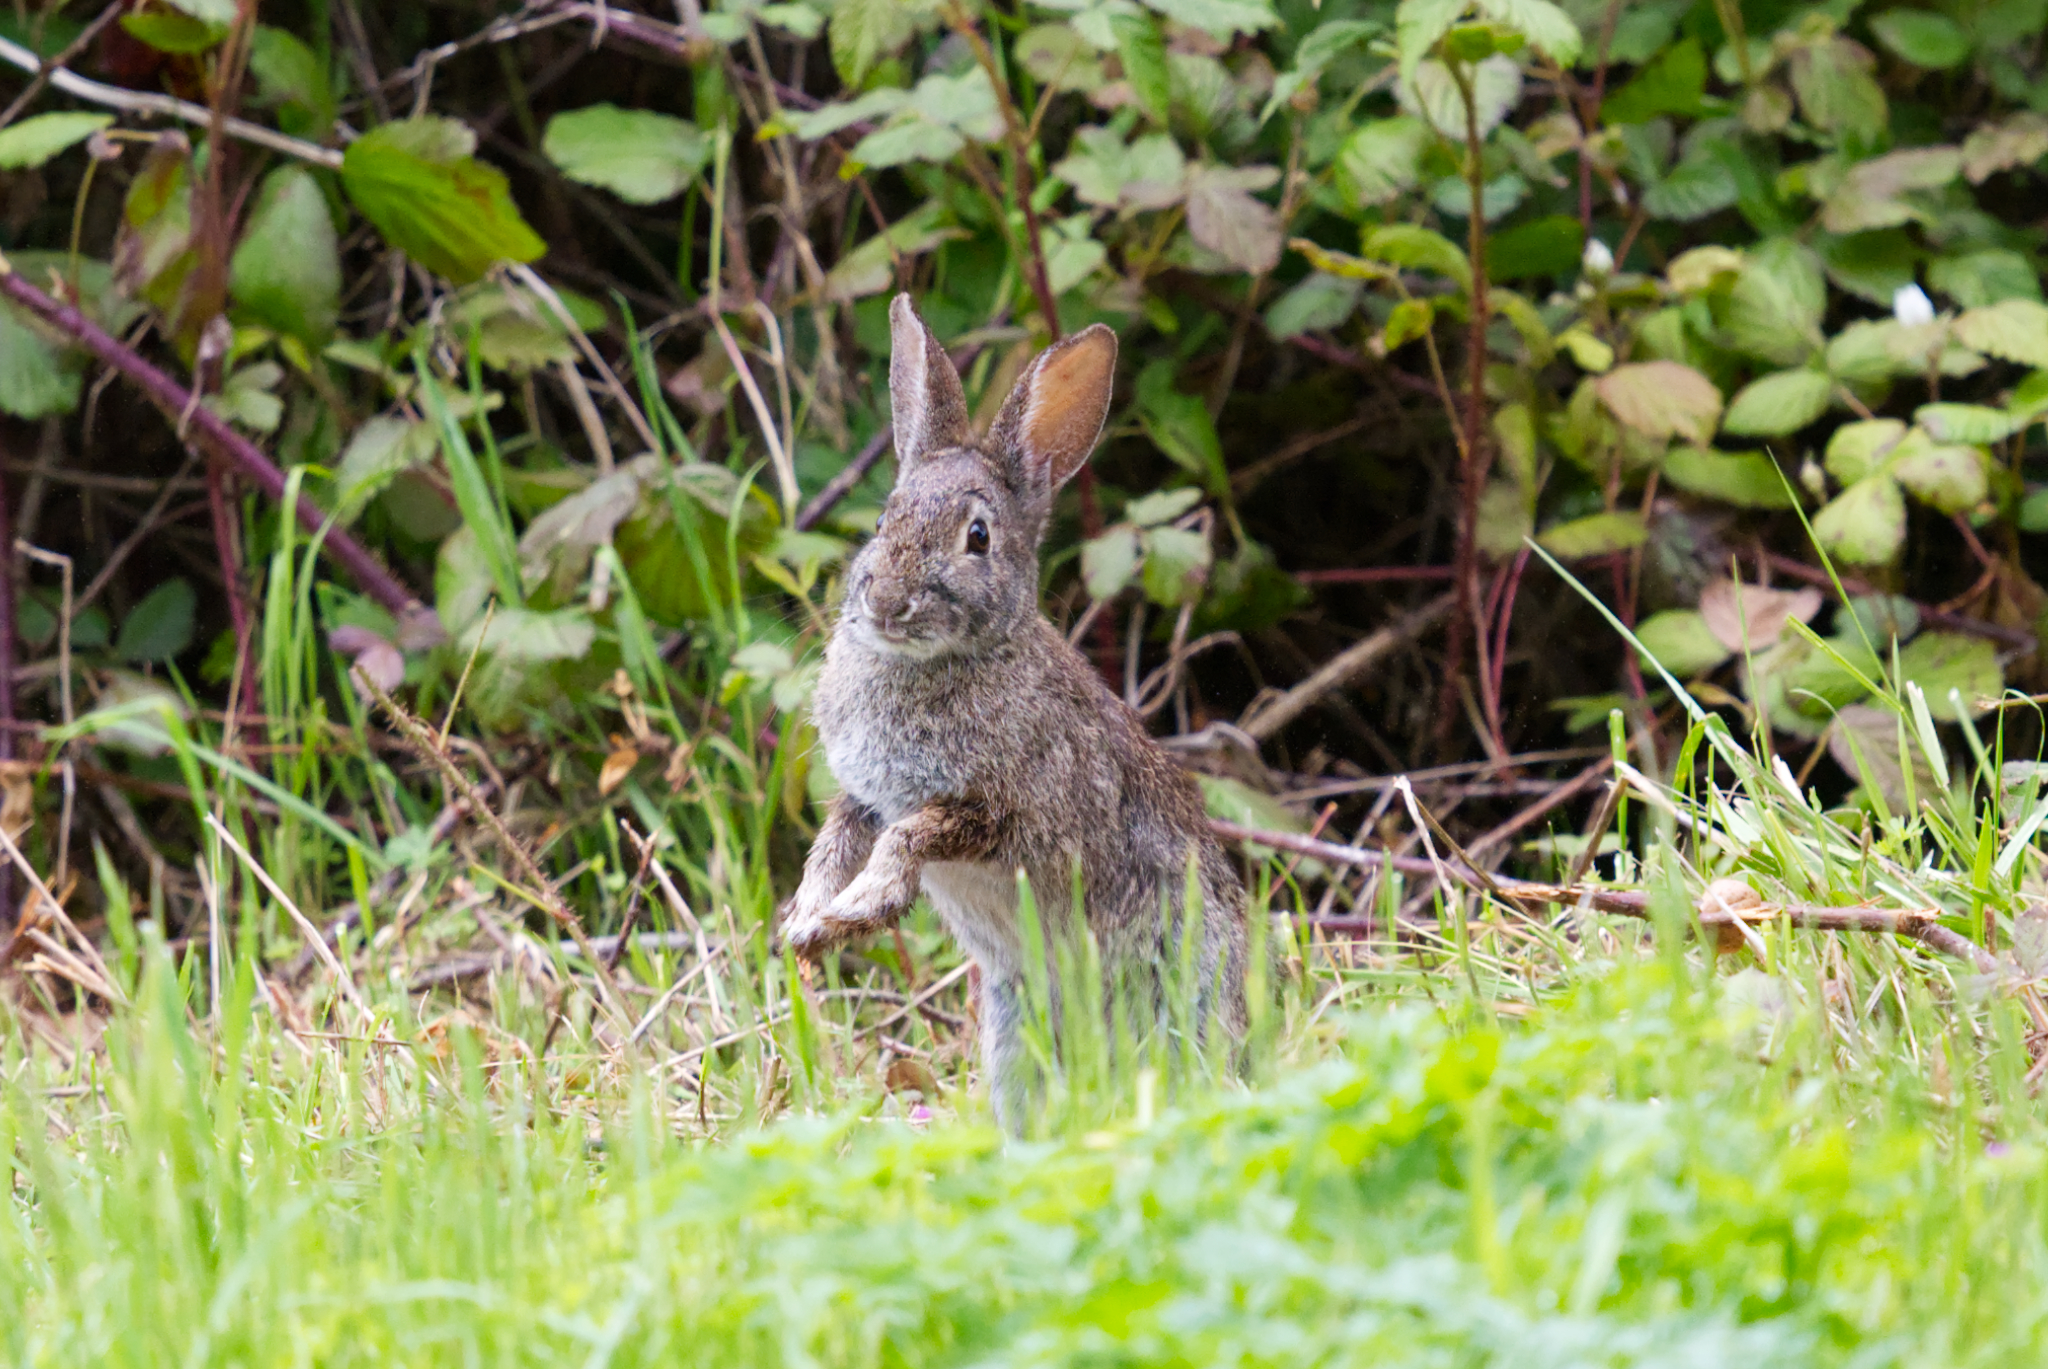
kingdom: Animalia
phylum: Chordata
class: Mammalia
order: Lagomorpha
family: Leporidae
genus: Sylvilagus
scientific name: Sylvilagus bachmani
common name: Brush rabbit
